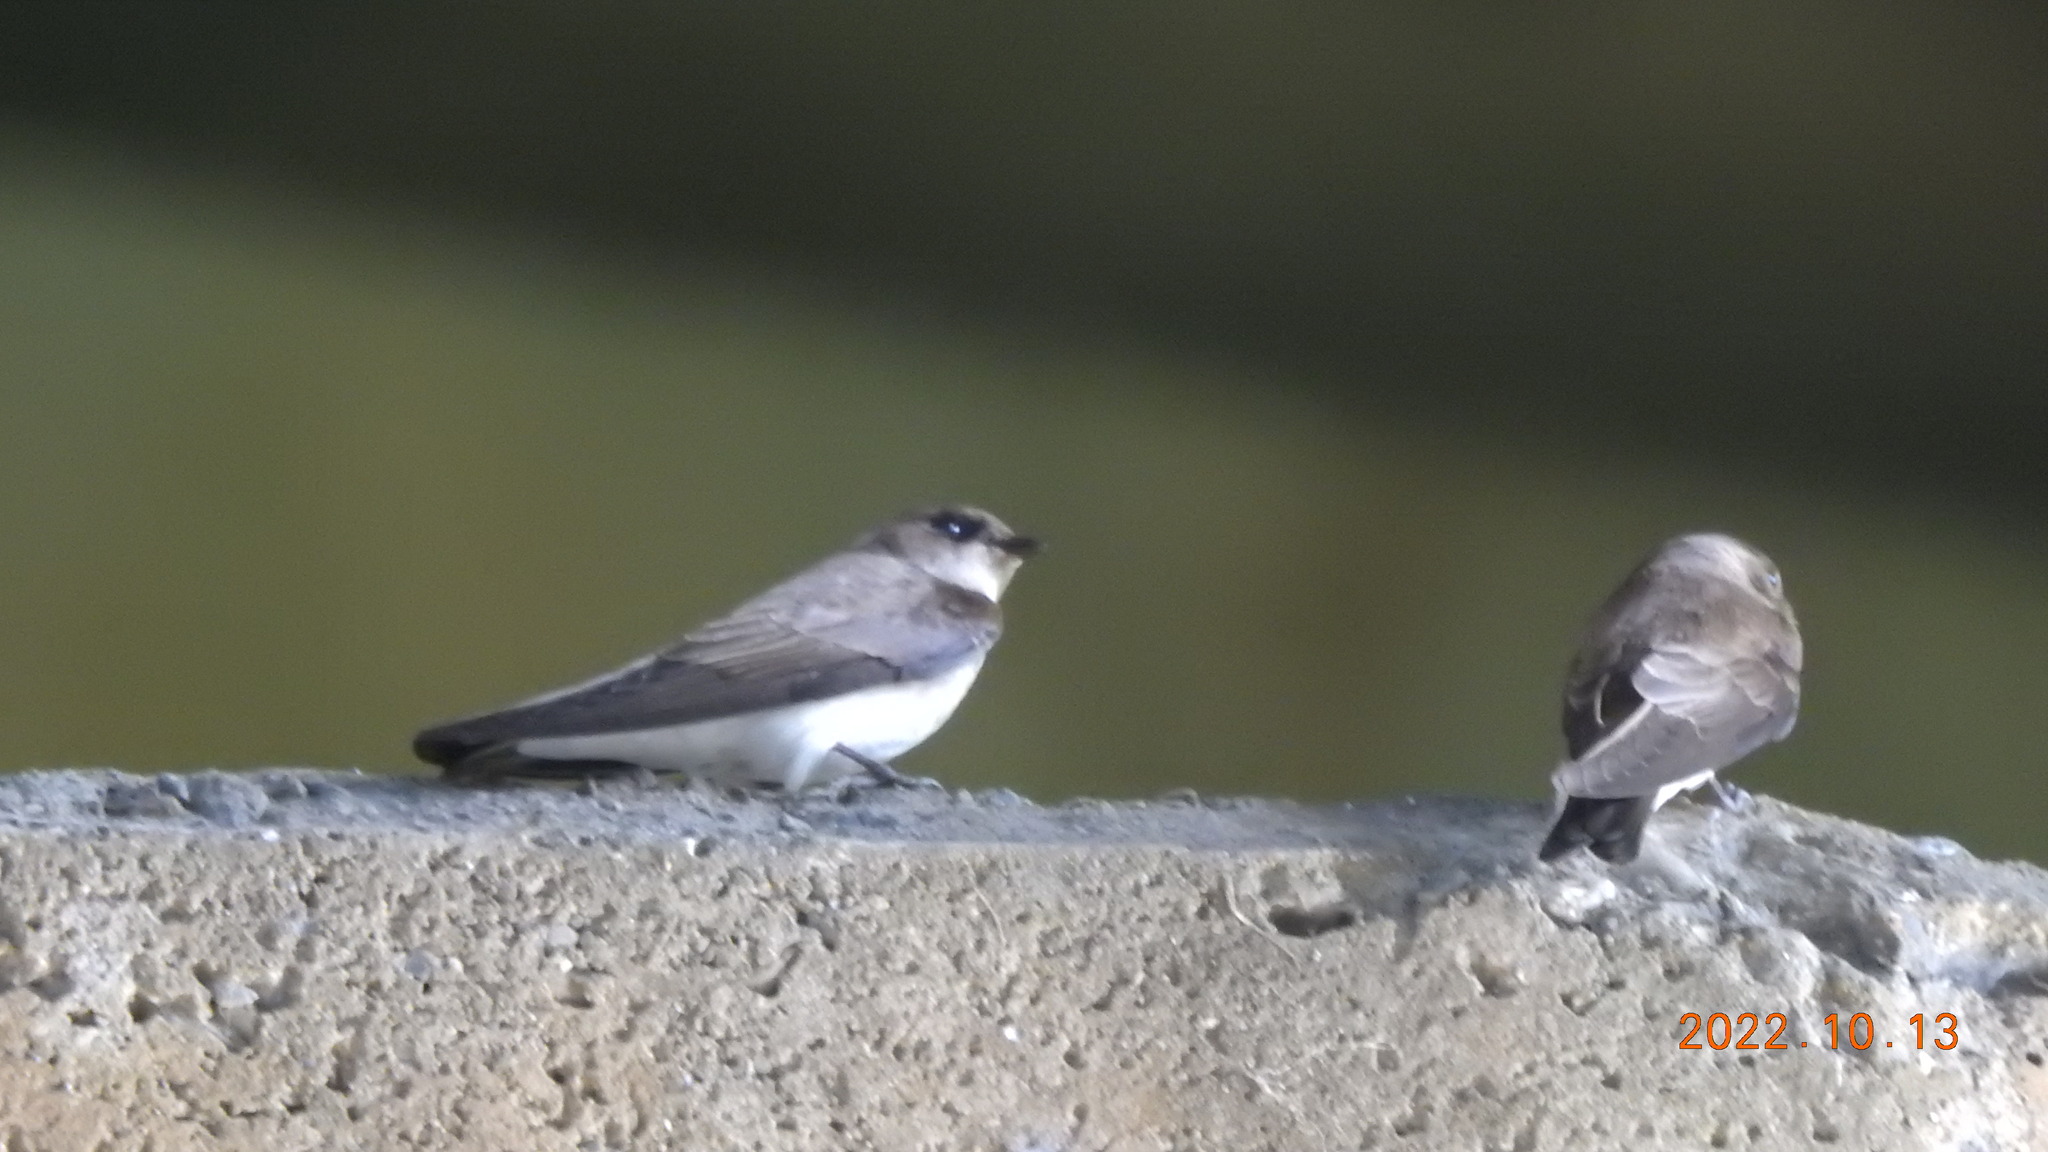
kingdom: Animalia
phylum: Chordata
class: Aves
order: Passeriformes
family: Hirundinidae
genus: Riparia
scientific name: Riparia chinensis
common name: Gray-throated martin
